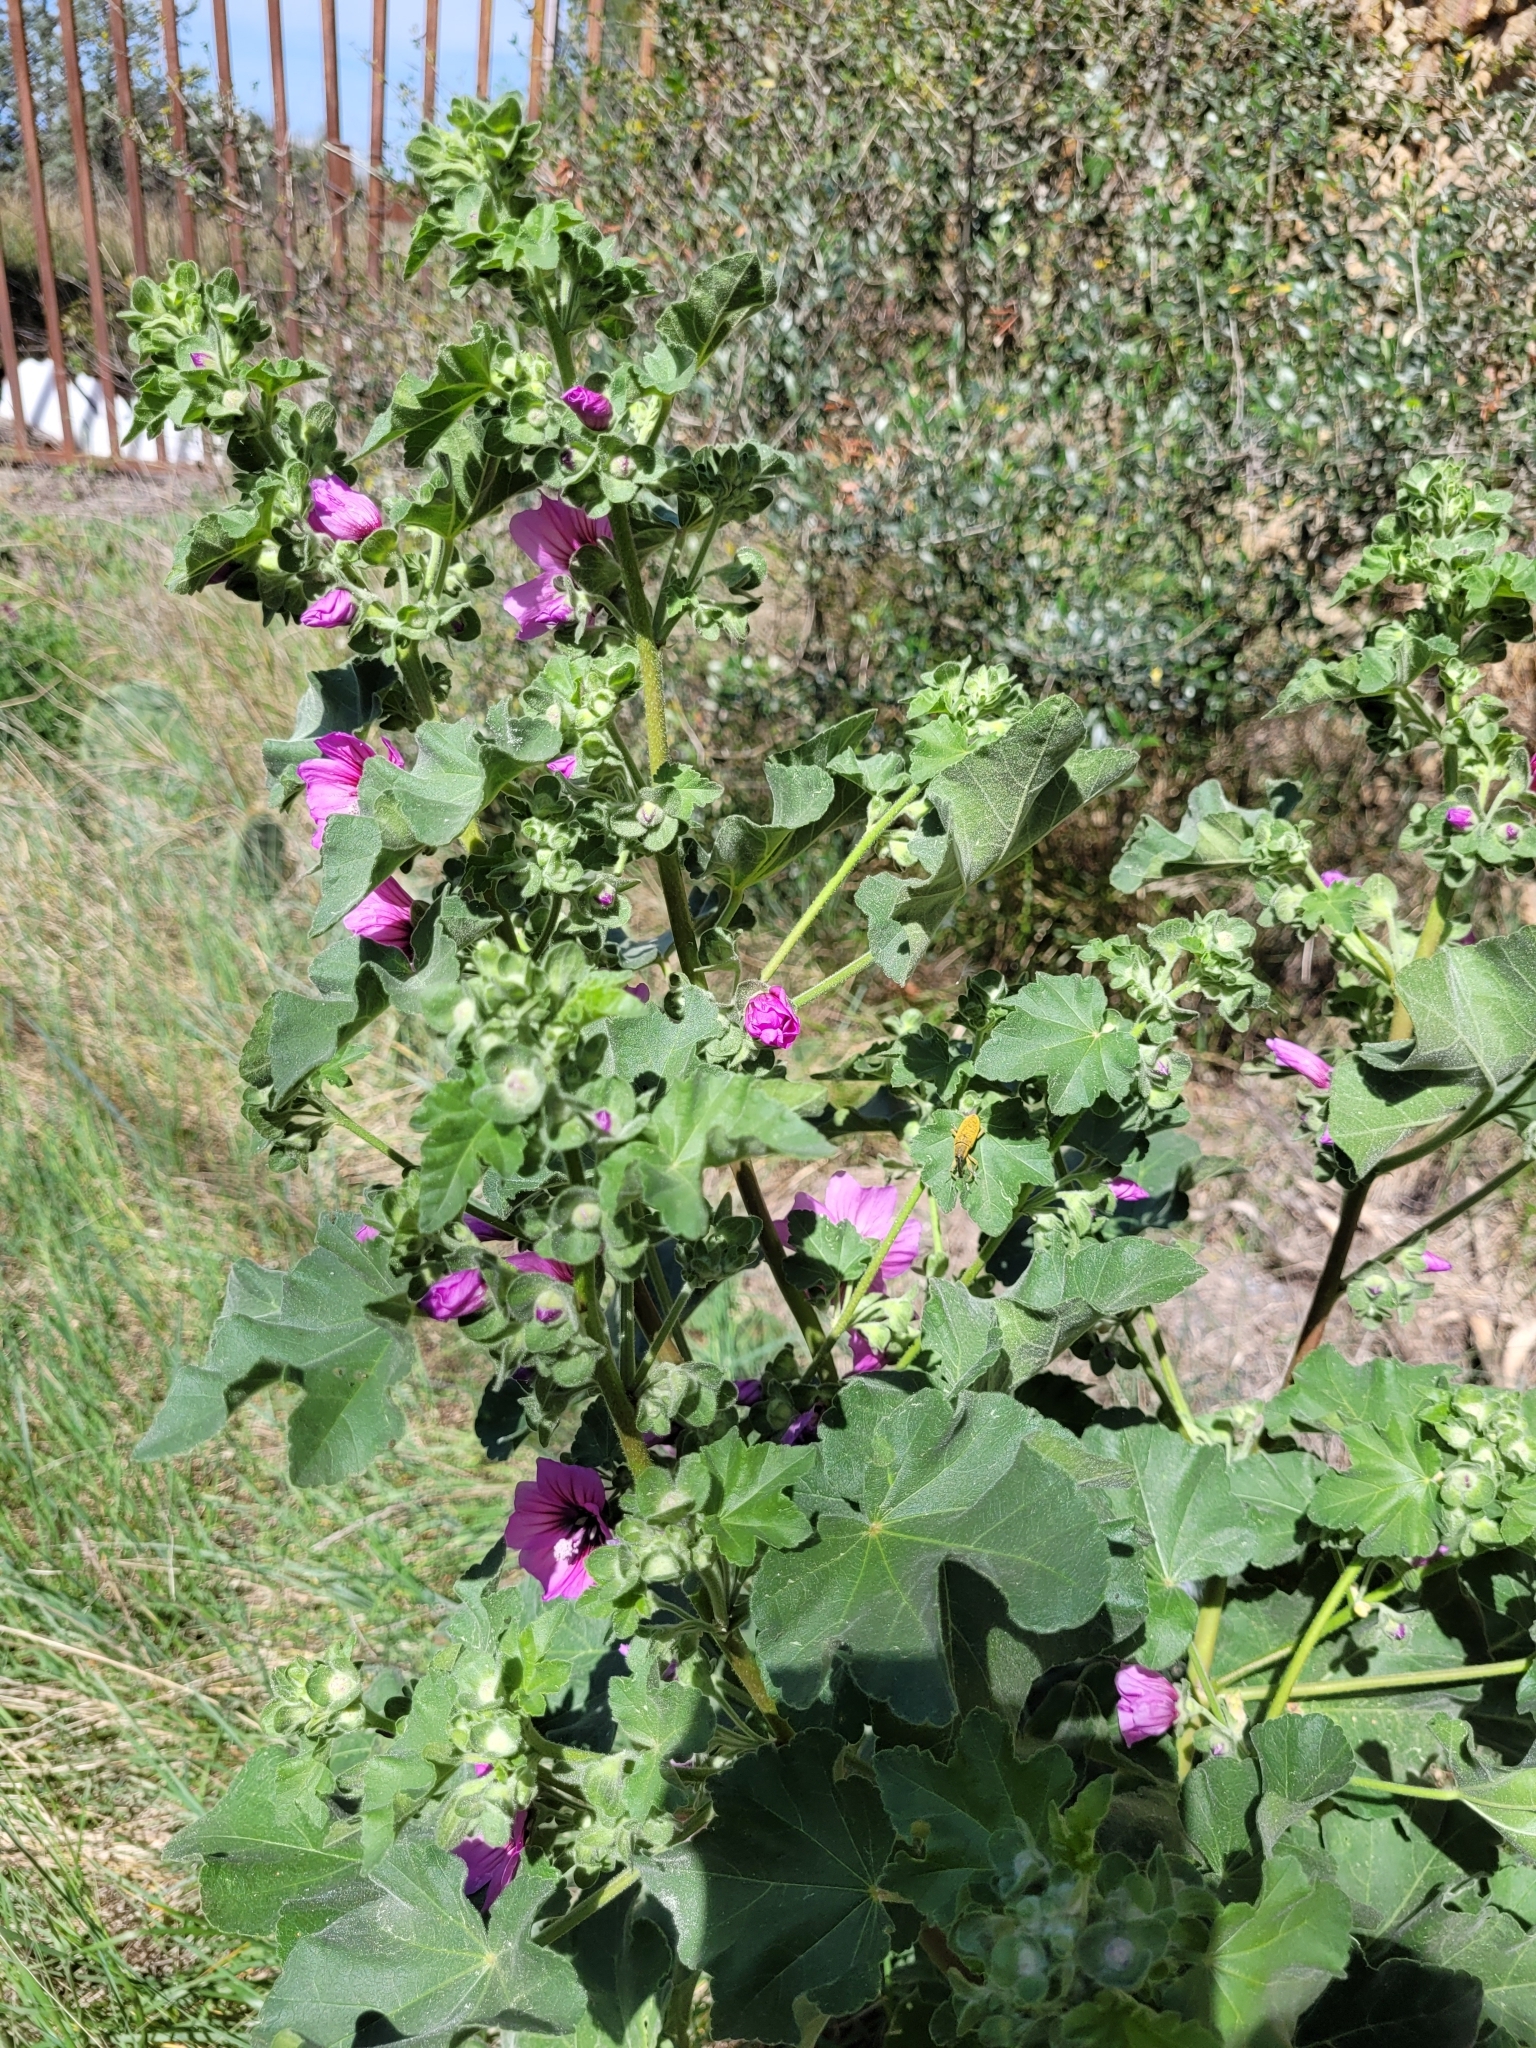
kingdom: Plantae
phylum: Tracheophyta
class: Magnoliopsida
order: Malvales
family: Malvaceae
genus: Malva
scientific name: Malva arborea
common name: Tree mallow
